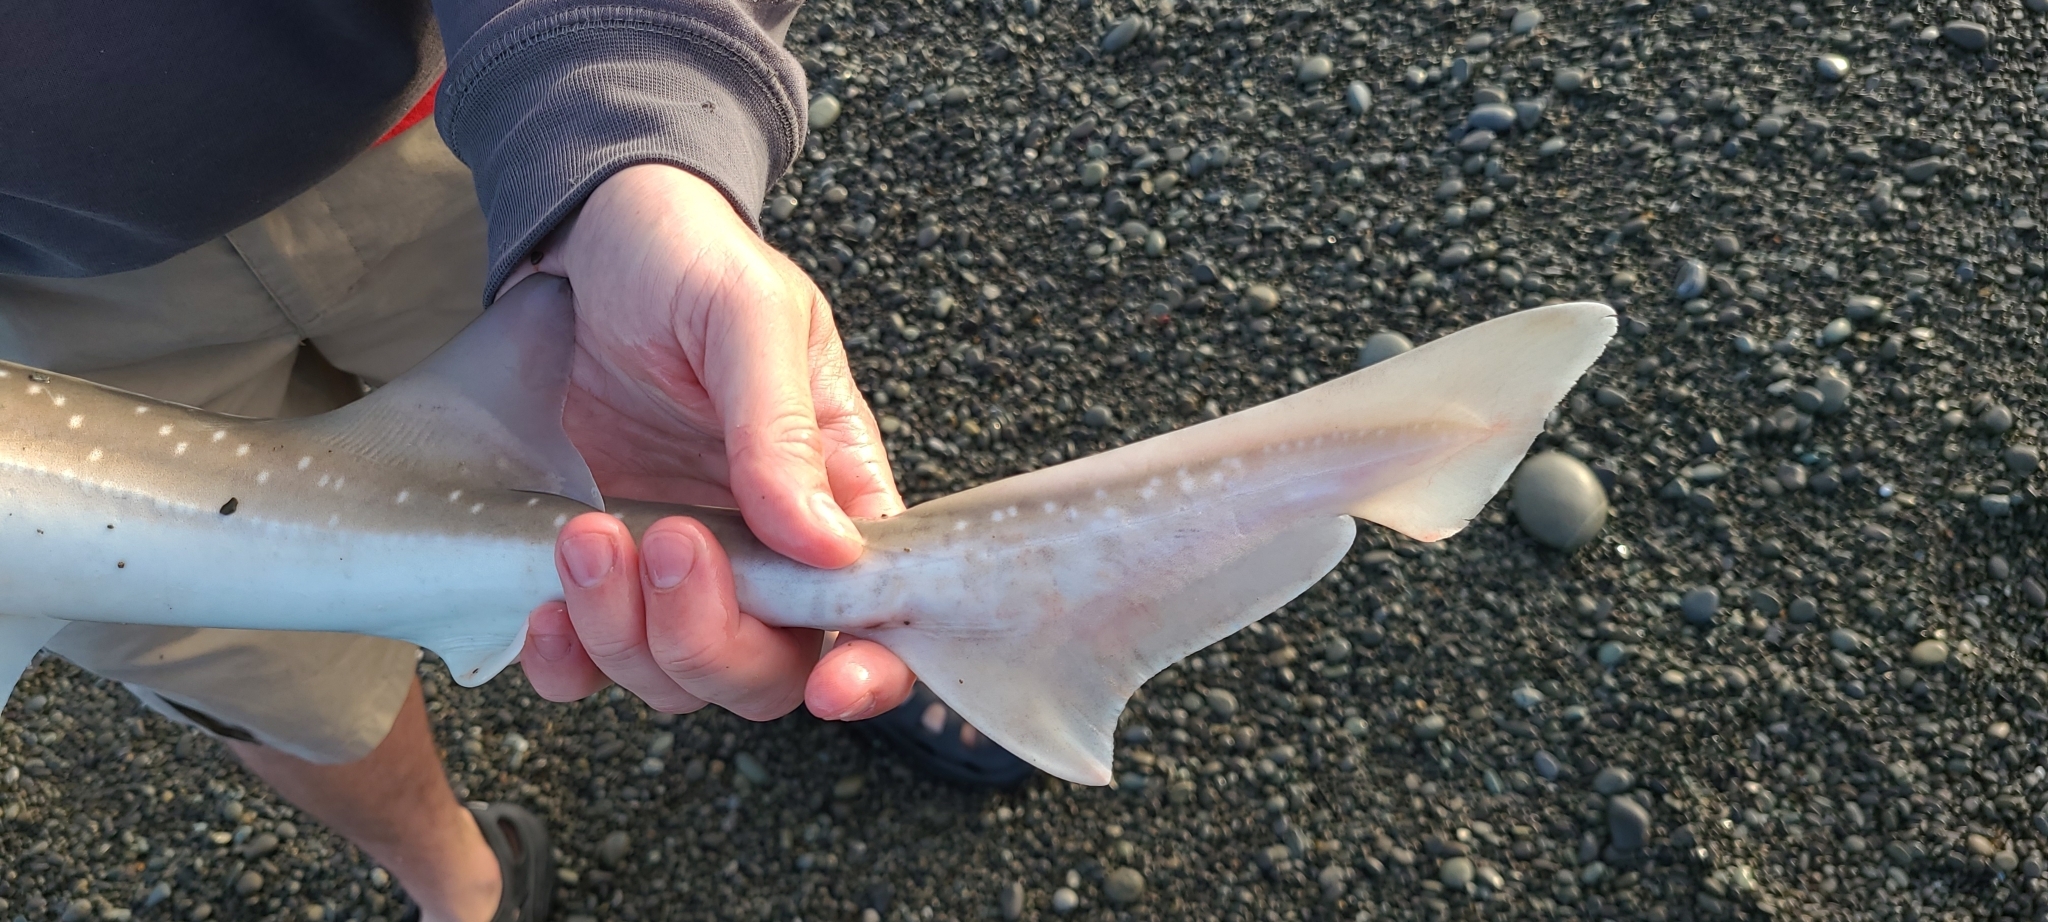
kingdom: Animalia
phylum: Chordata
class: Elasmobranchii
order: Carcharhiniformes
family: Triakidae
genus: Mustelus
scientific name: Mustelus lenticulatus
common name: Gummy shark
